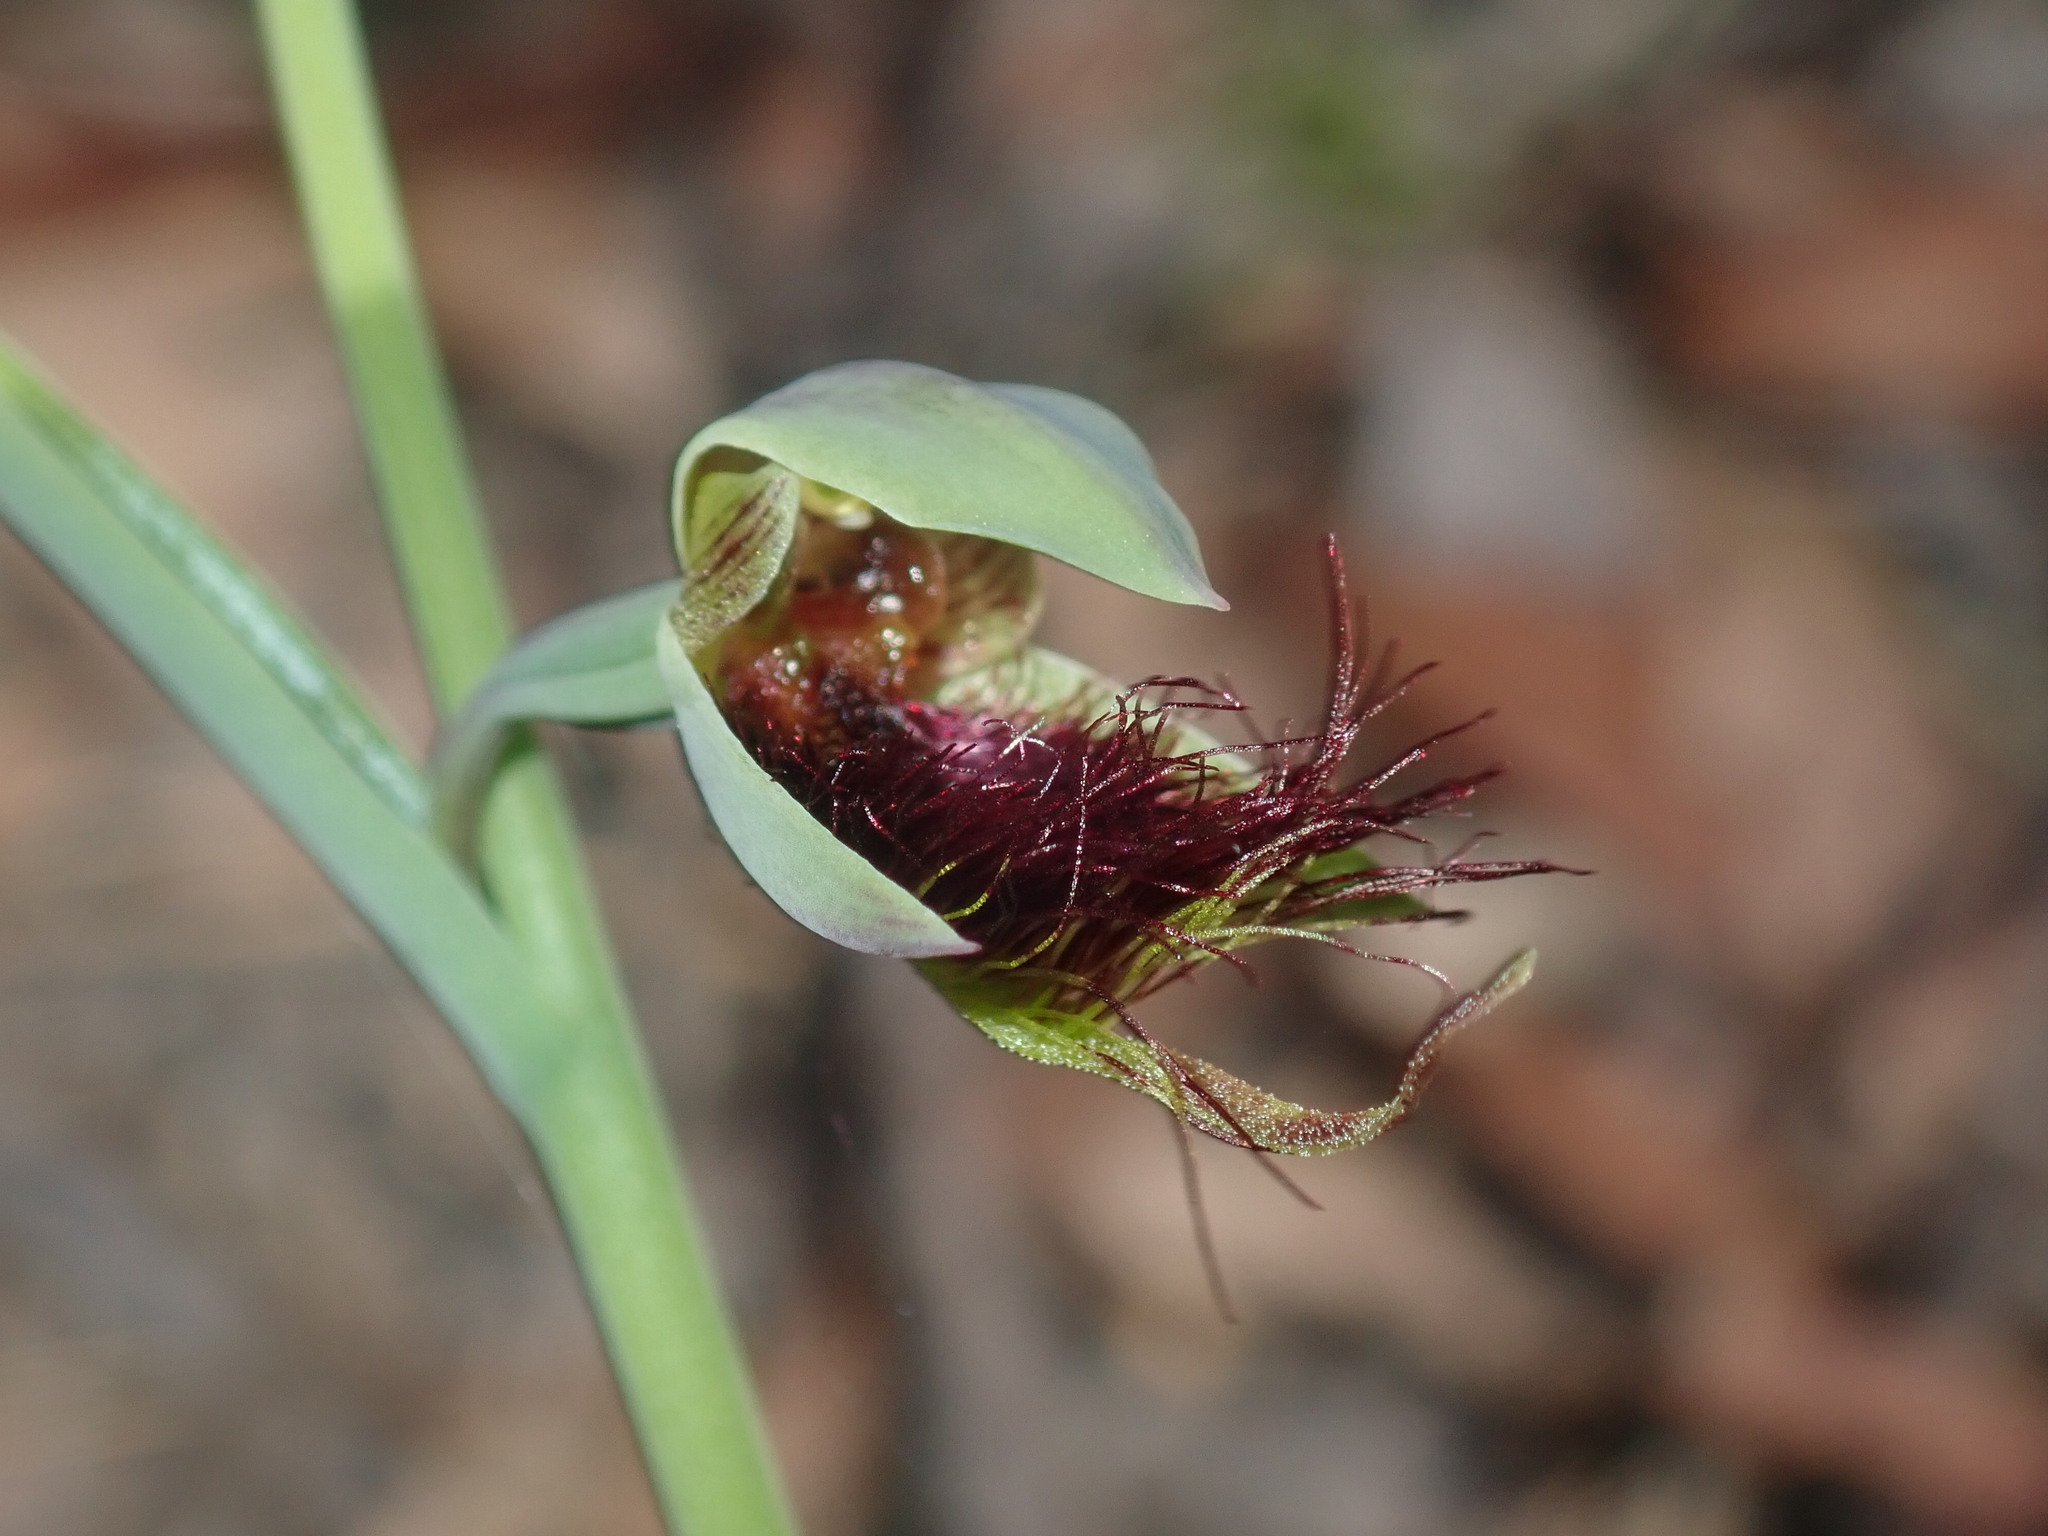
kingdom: Plantae
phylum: Tracheophyta
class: Liliopsida
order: Asparagales
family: Orchidaceae
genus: Calochilus
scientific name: Calochilus paludosus
